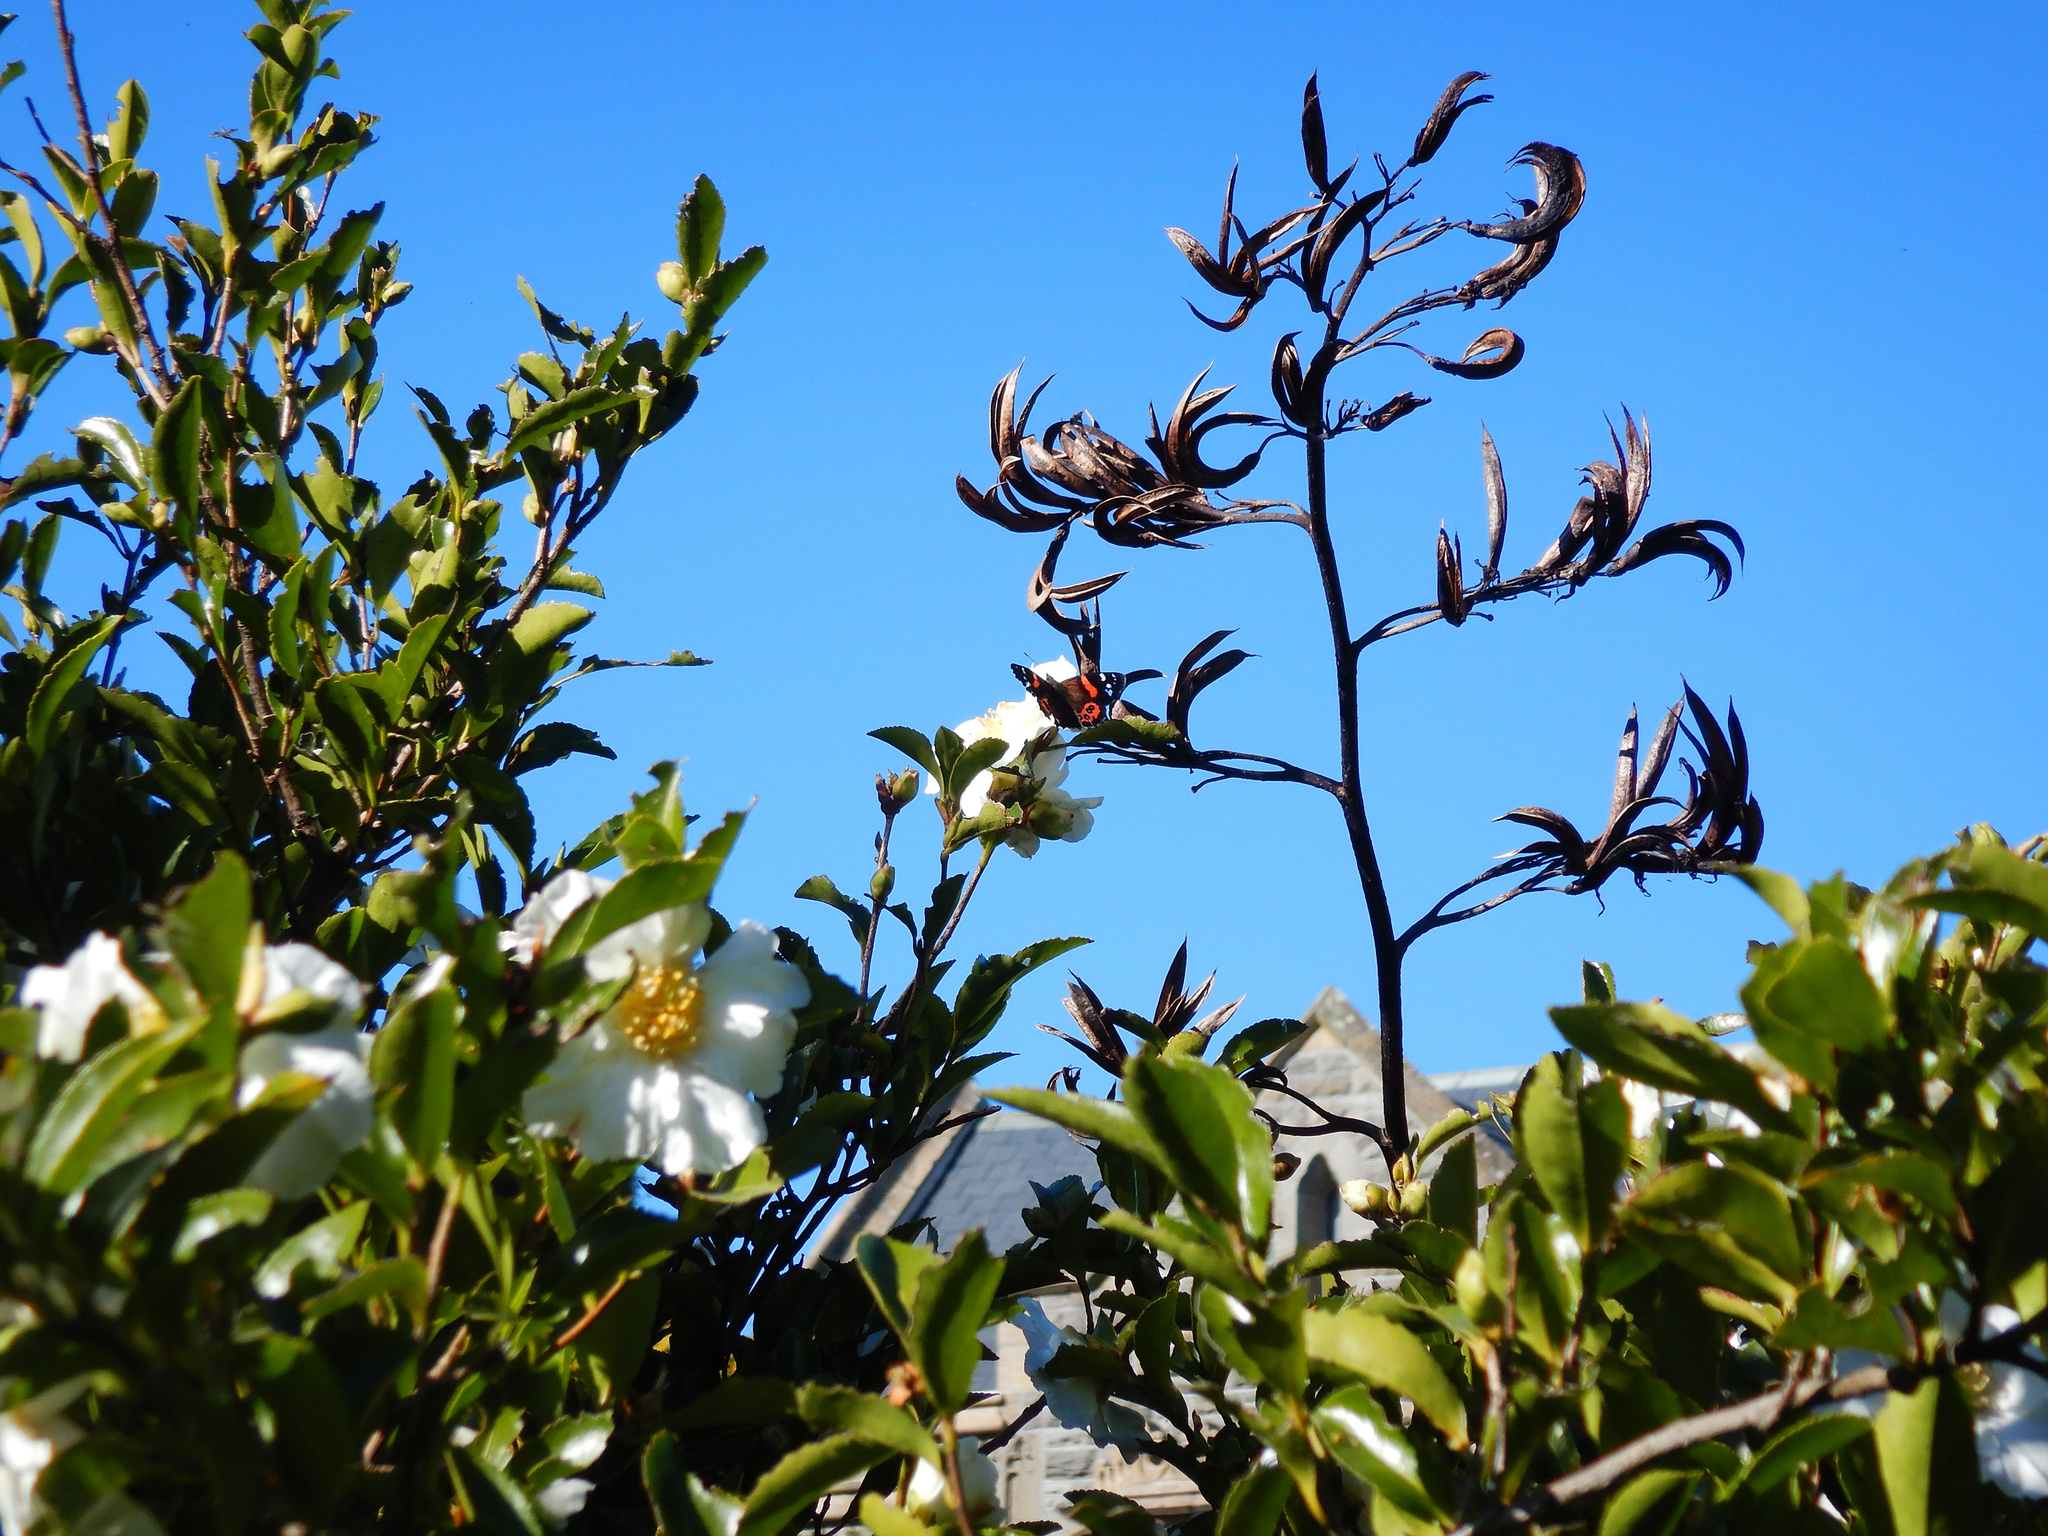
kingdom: Animalia
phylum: Arthropoda
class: Insecta
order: Lepidoptera
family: Nymphalidae
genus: Vanessa
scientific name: Vanessa gonerilla
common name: New zealand red admiral
